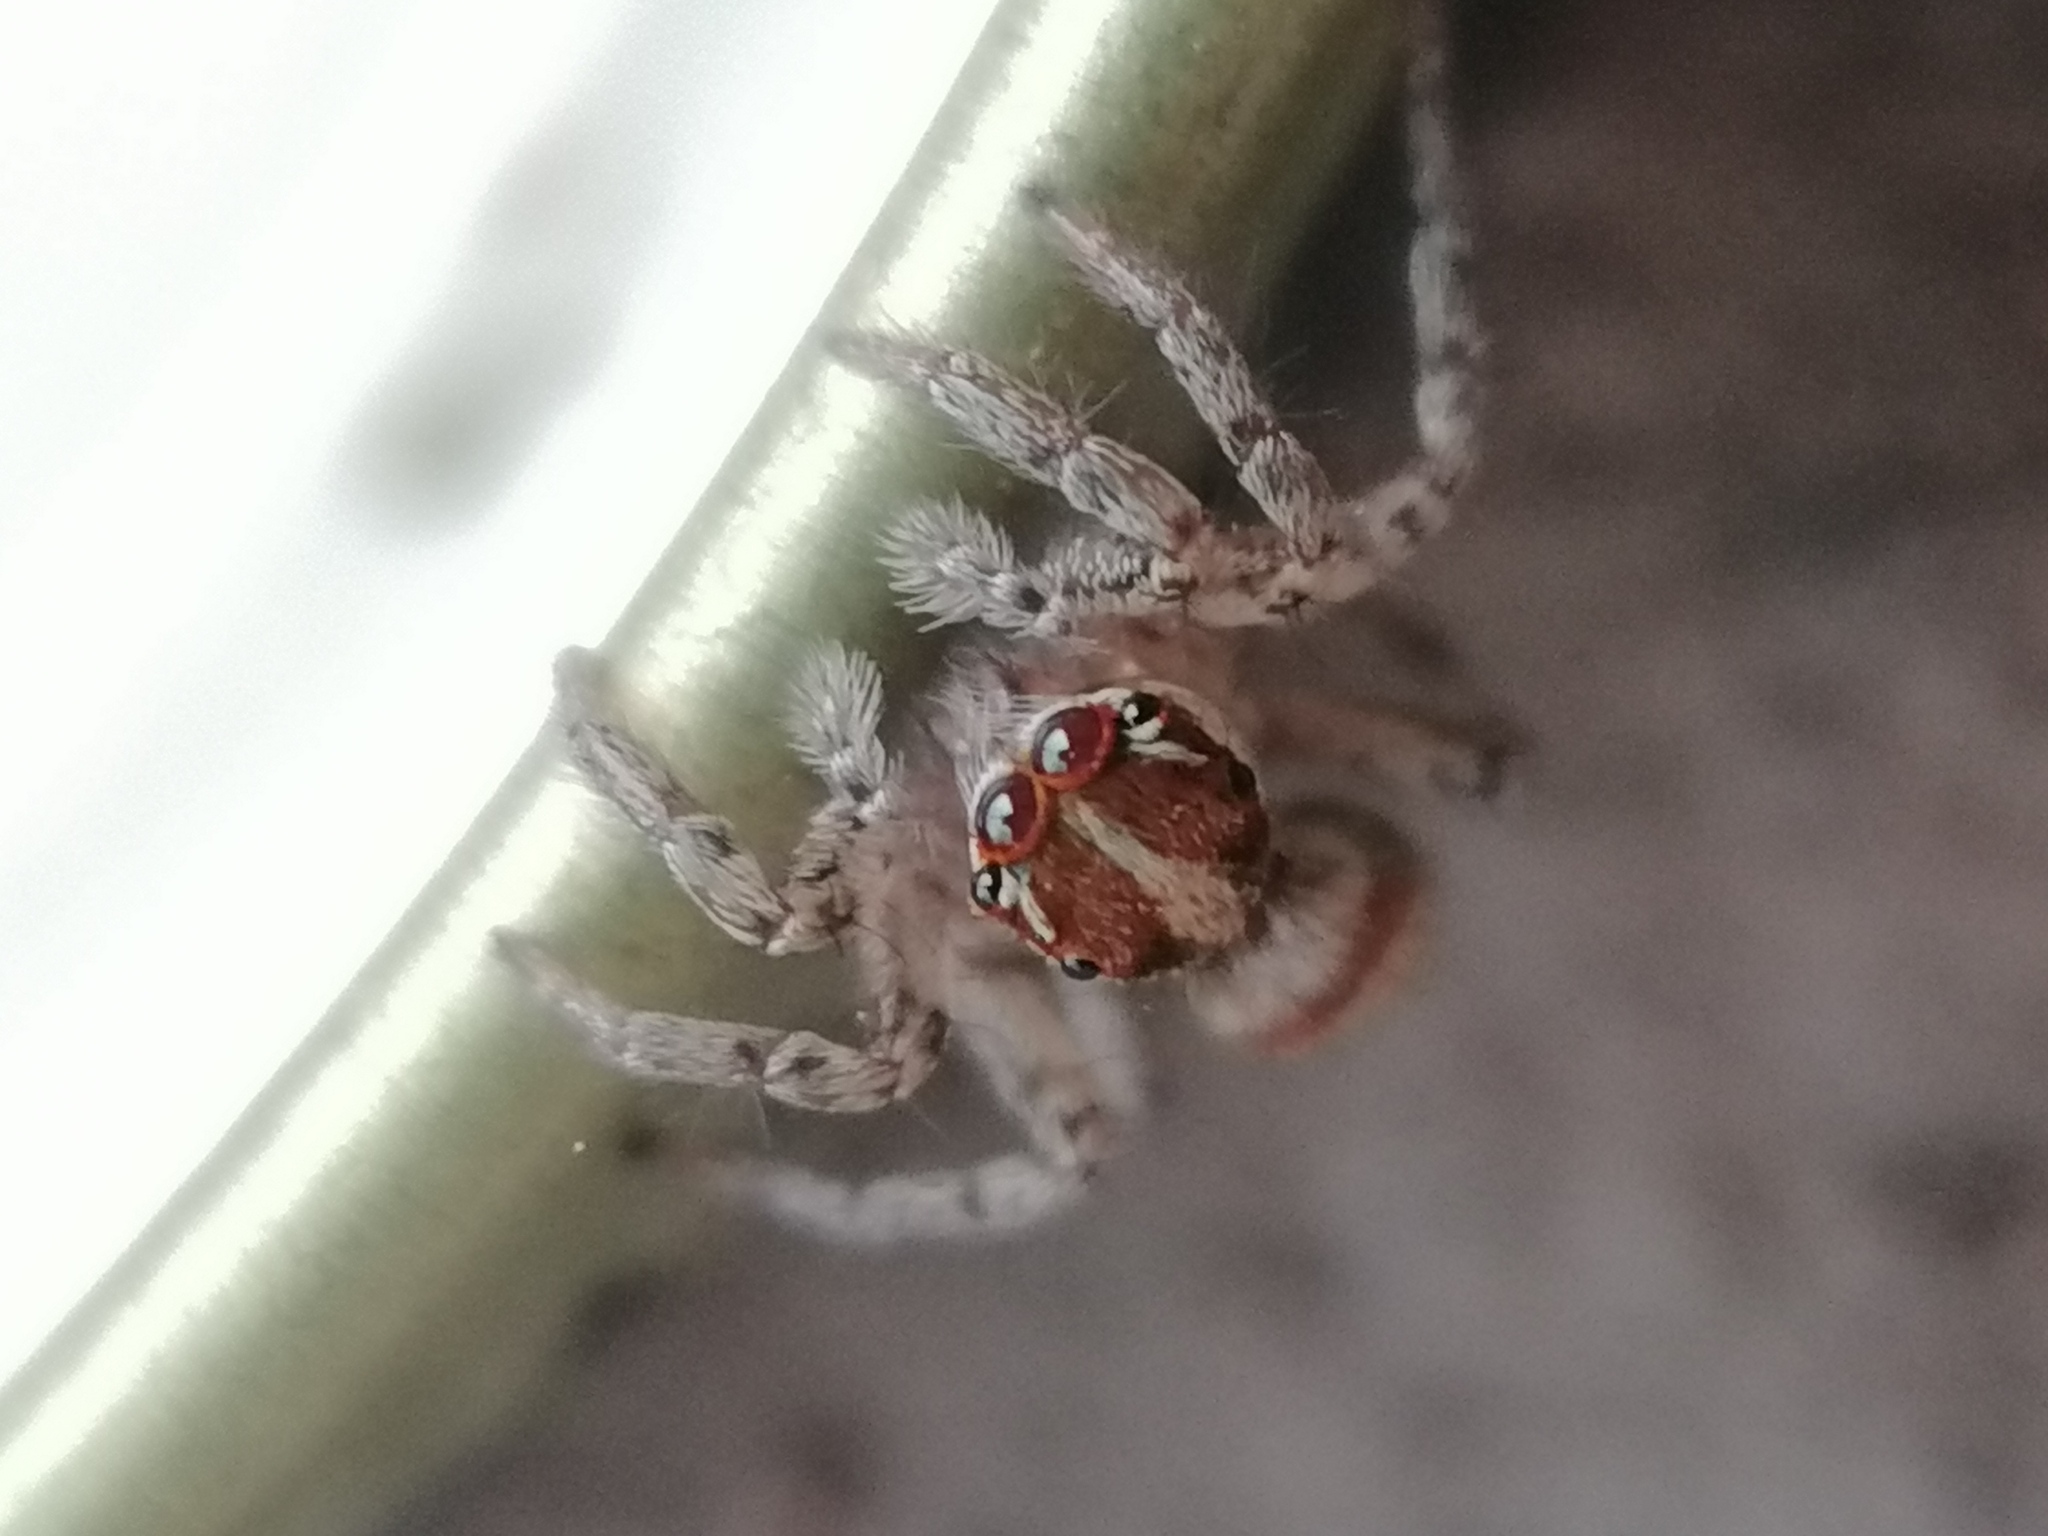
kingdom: Animalia
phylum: Arthropoda
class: Arachnida
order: Araneae
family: Salticidae
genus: Plexippus
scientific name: Plexippus strandi
